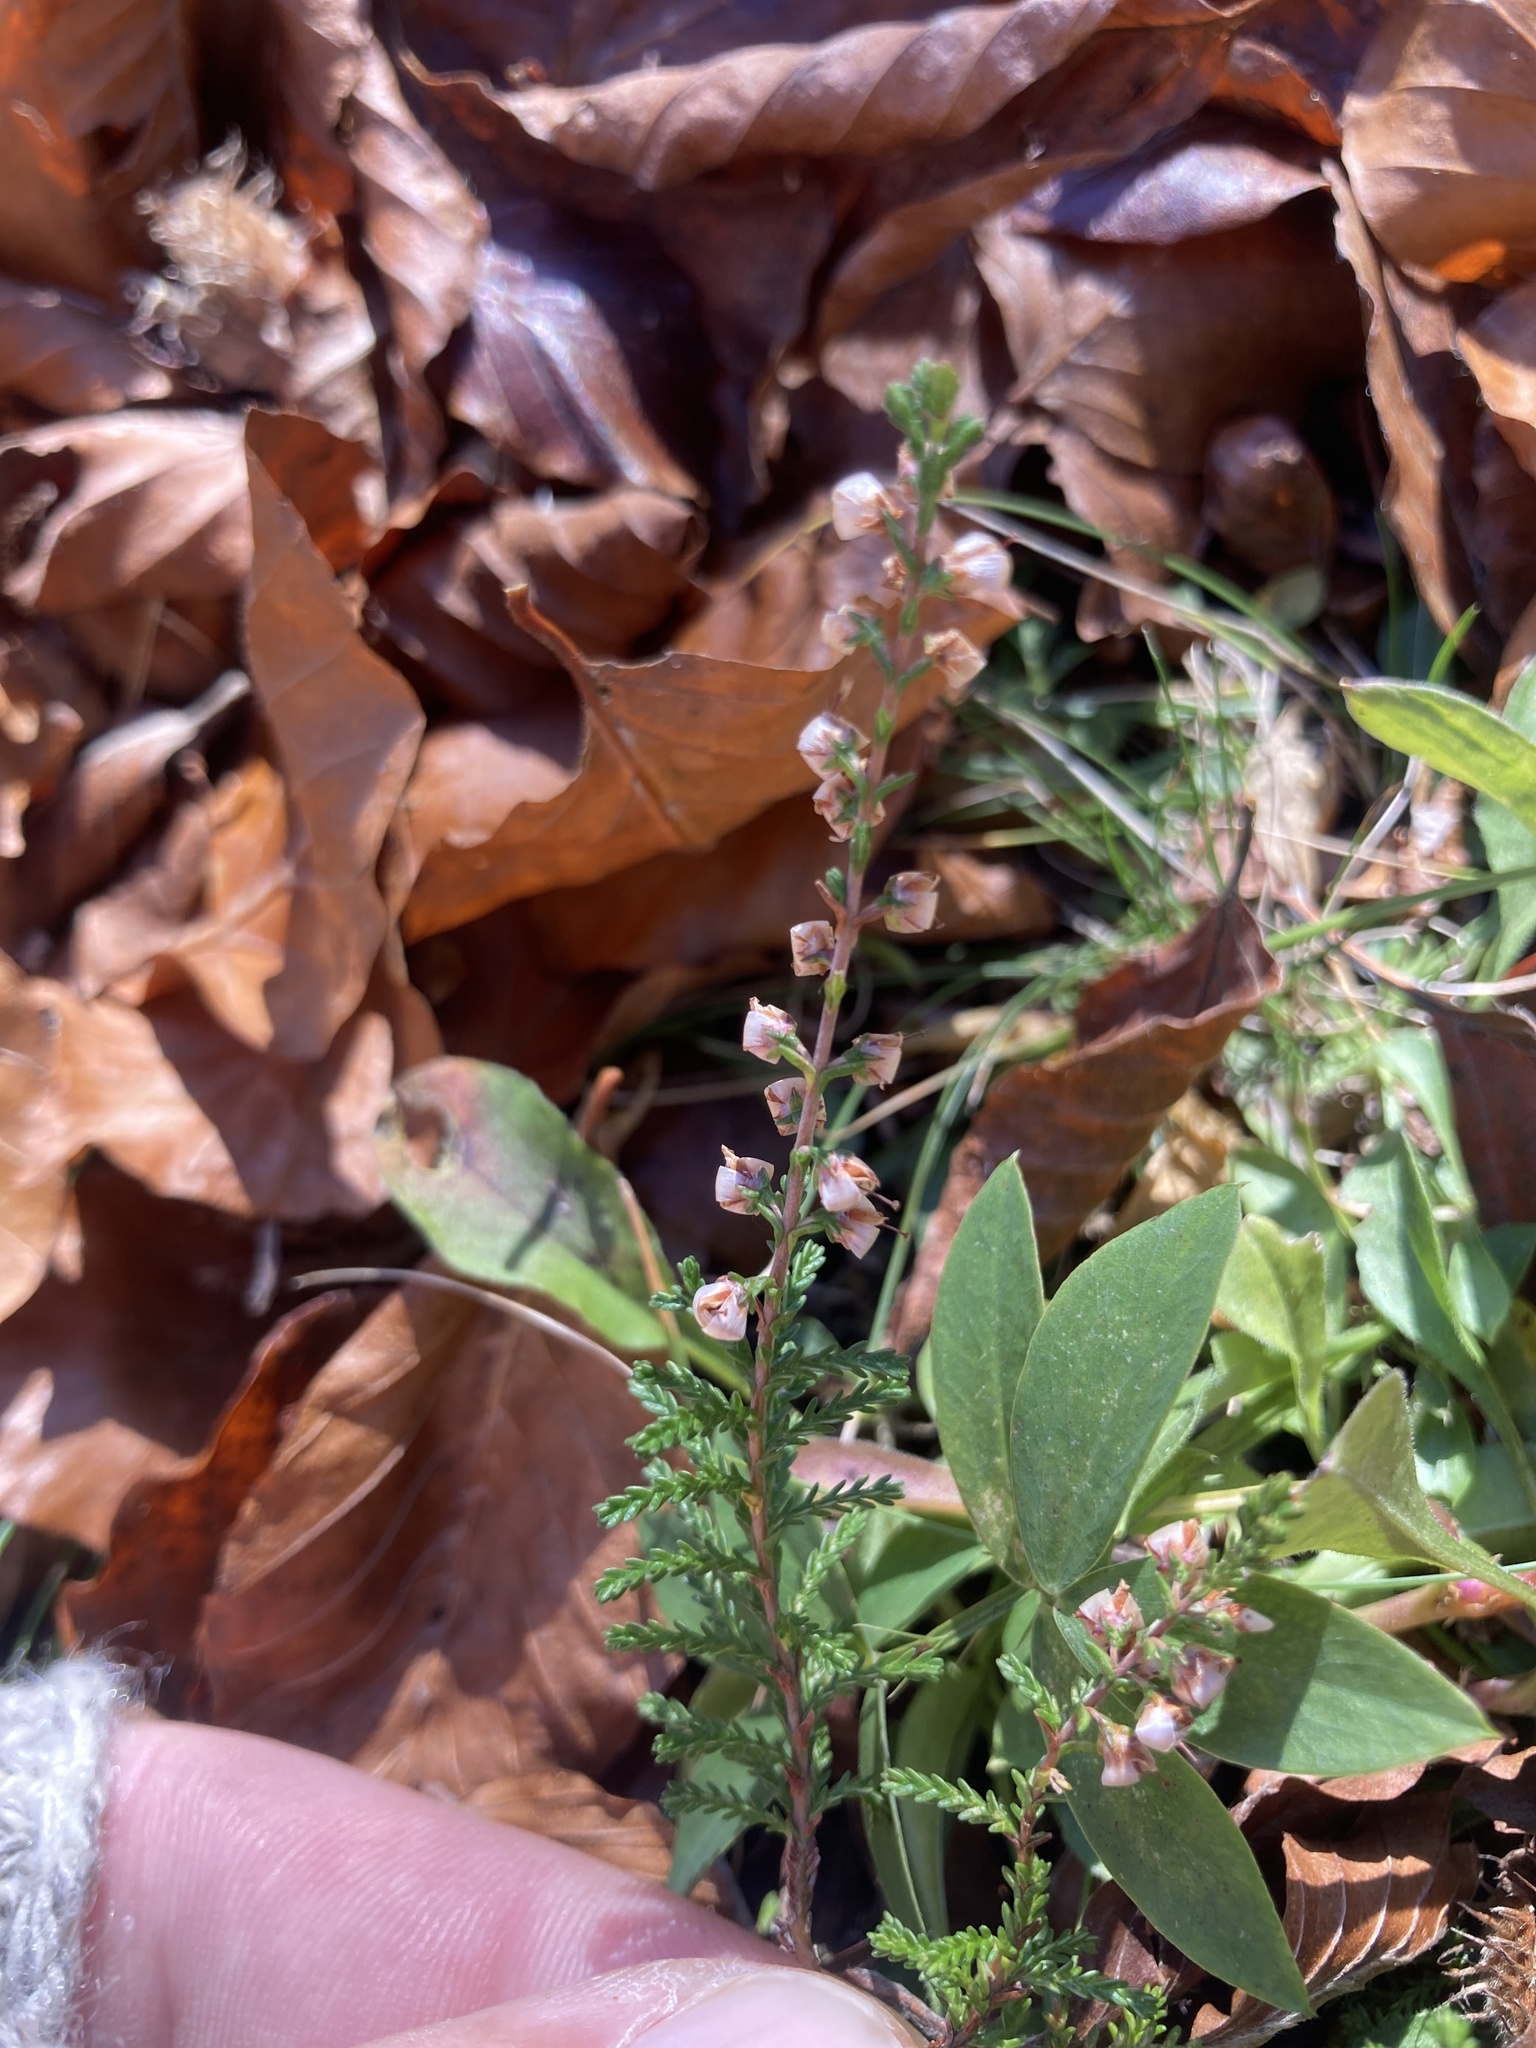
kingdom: Plantae
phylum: Tracheophyta
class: Magnoliopsida
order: Ericales
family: Ericaceae
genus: Calluna
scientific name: Calluna vulgaris
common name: Heather
